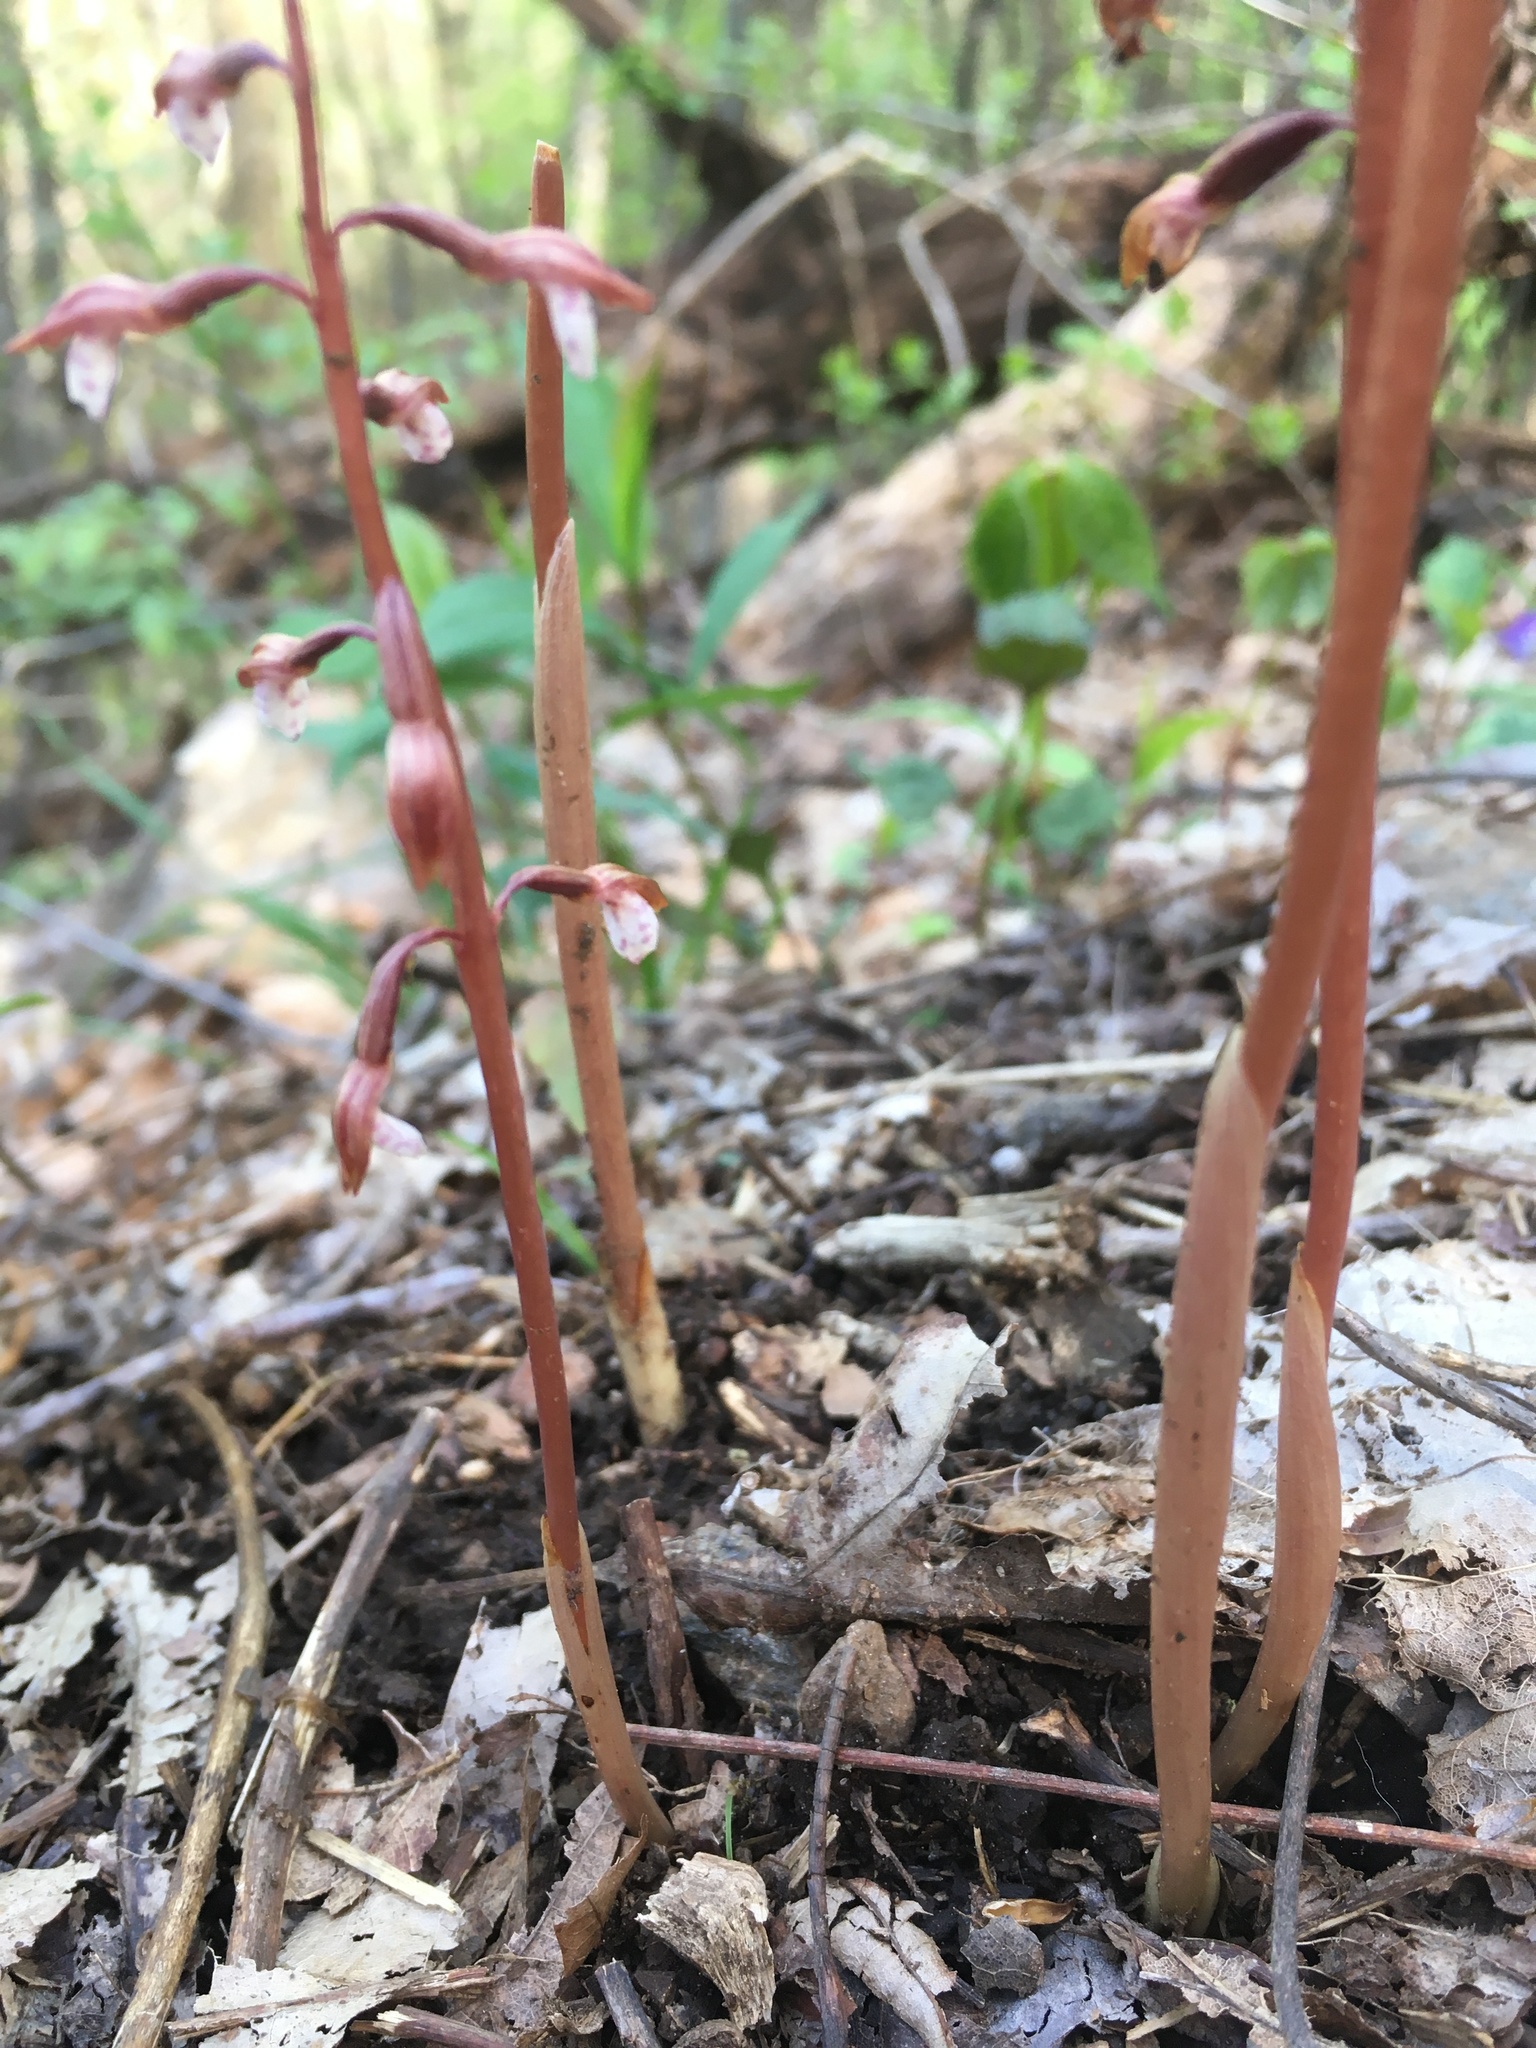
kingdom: Plantae
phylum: Tracheophyta
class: Liliopsida
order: Asparagales
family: Orchidaceae
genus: Corallorhiza
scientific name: Corallorhiza wisteriana
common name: Spring coralroot
